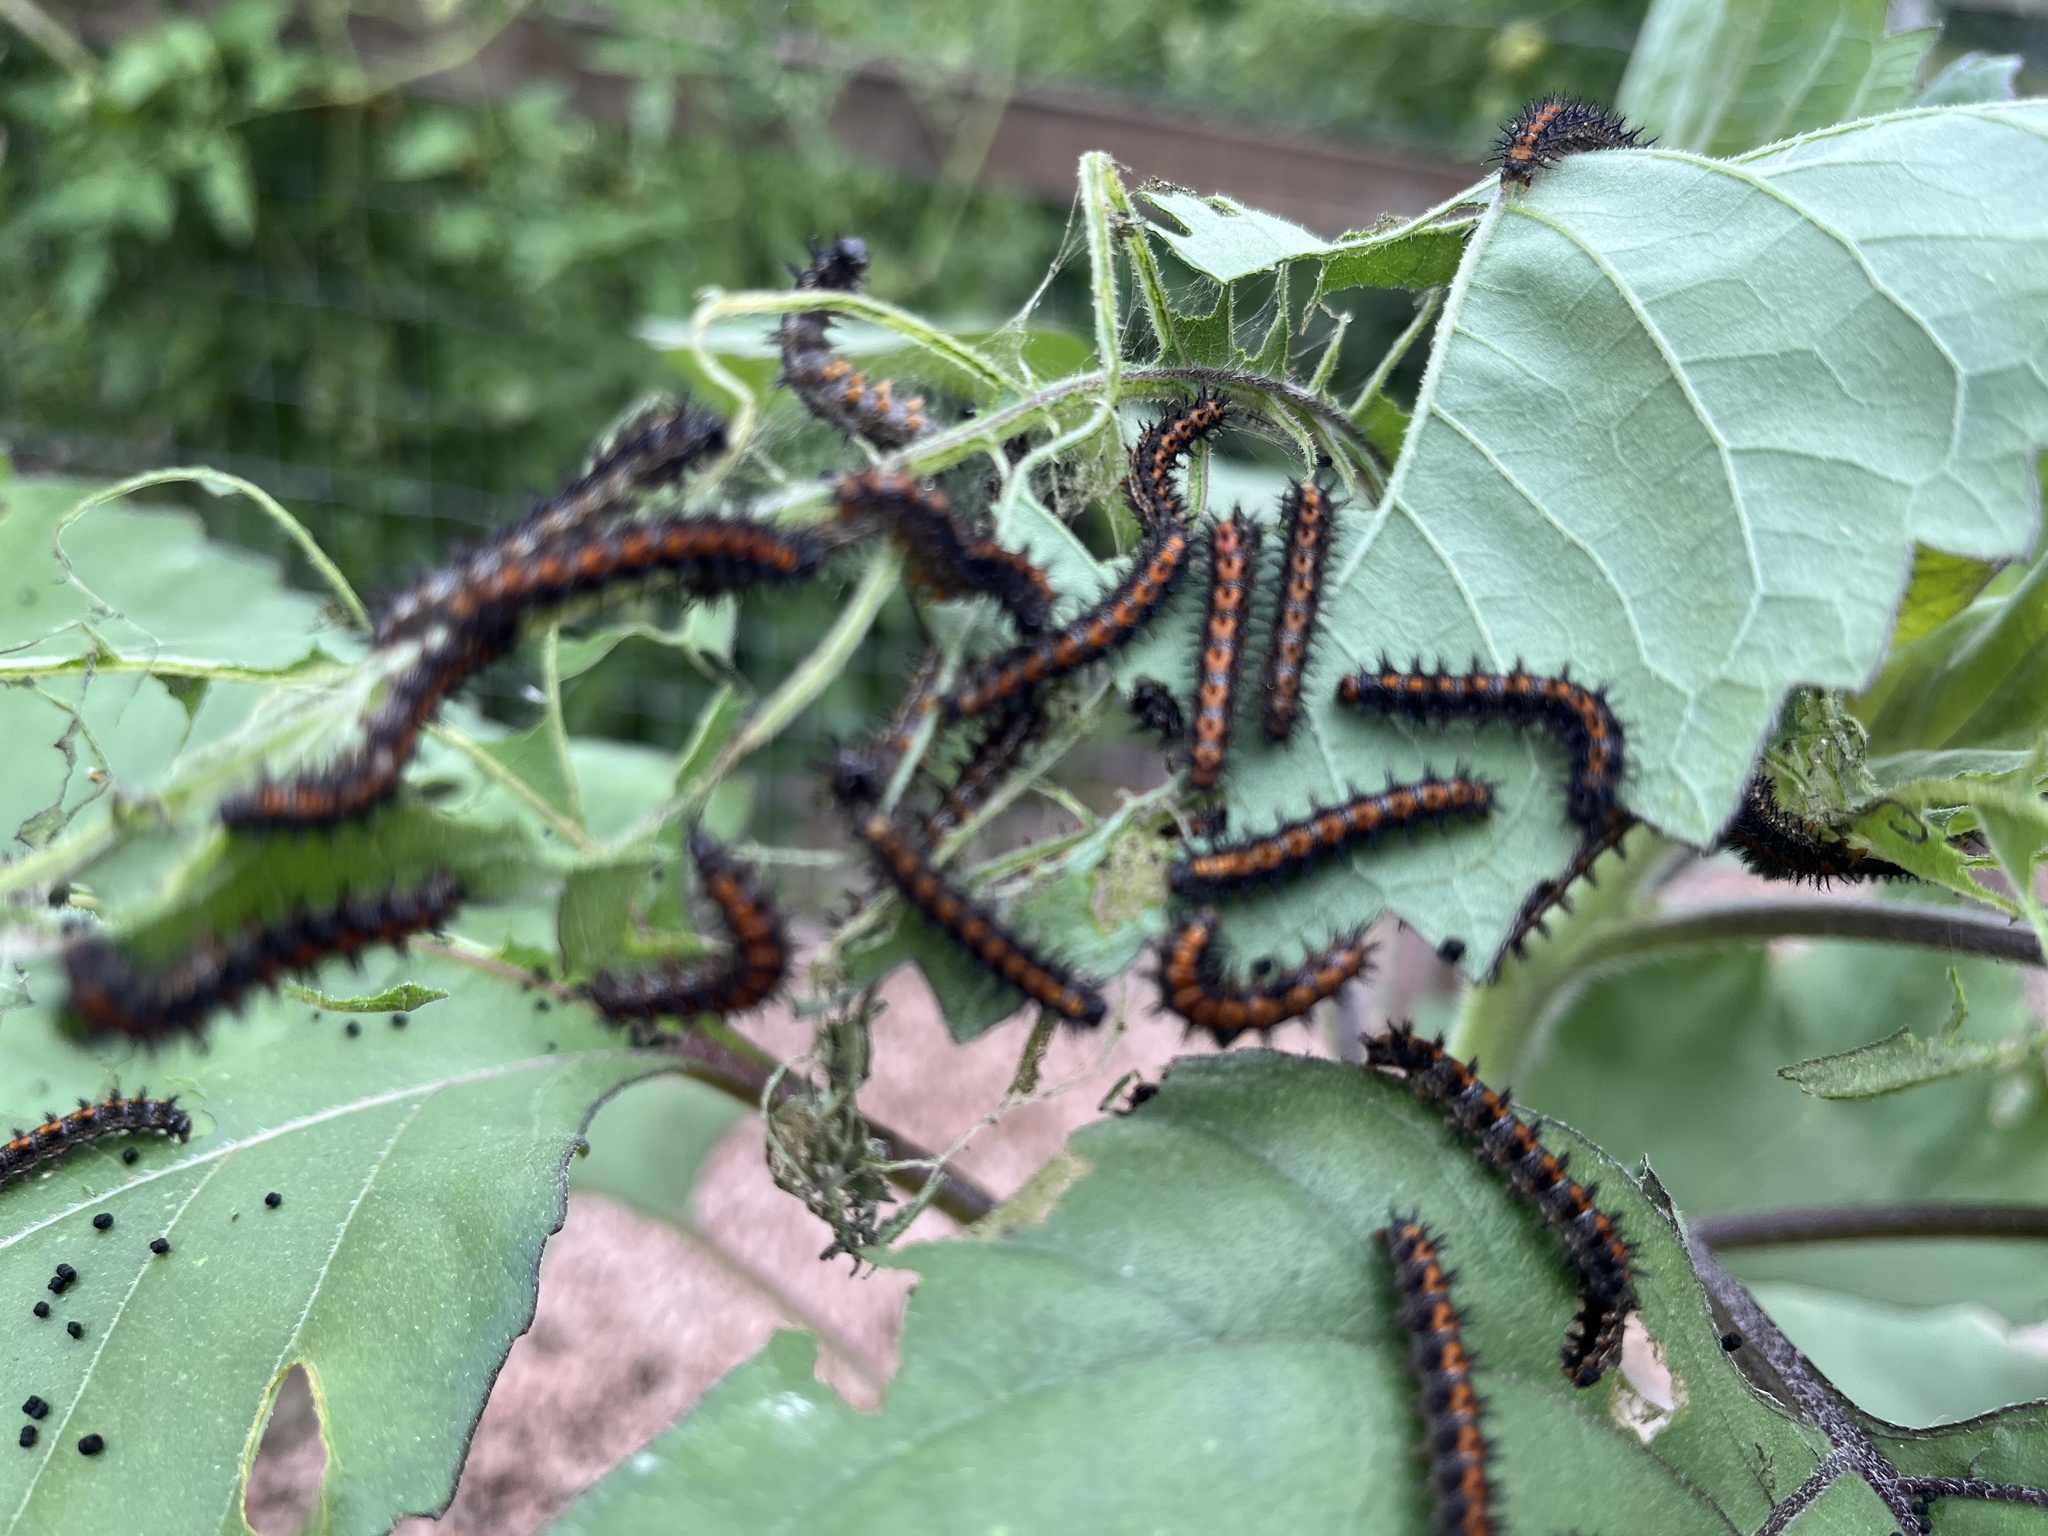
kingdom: Animalia
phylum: Arthropoda
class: Insecta
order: Lepidoptera
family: Nymphalidae
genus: Chlosyne
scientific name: Chlosyne lacinia
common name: Bordered patch
